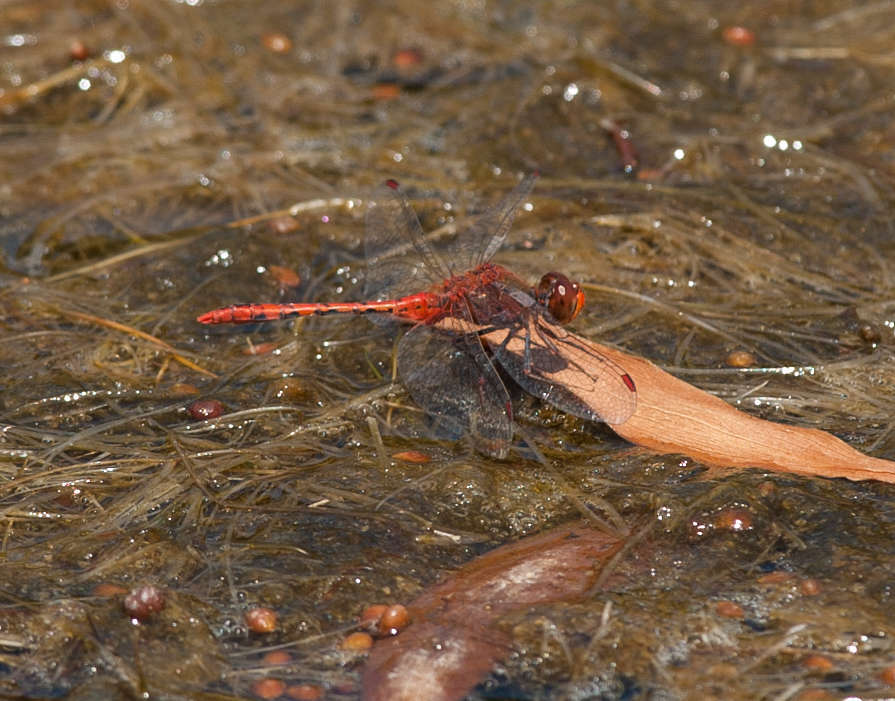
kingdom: Animalia
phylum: Arthropoda
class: Insecta
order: Odonata
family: Libellulidae
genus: Diplacodes
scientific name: Diplacodes bipunctata
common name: Red percher dragonfly
